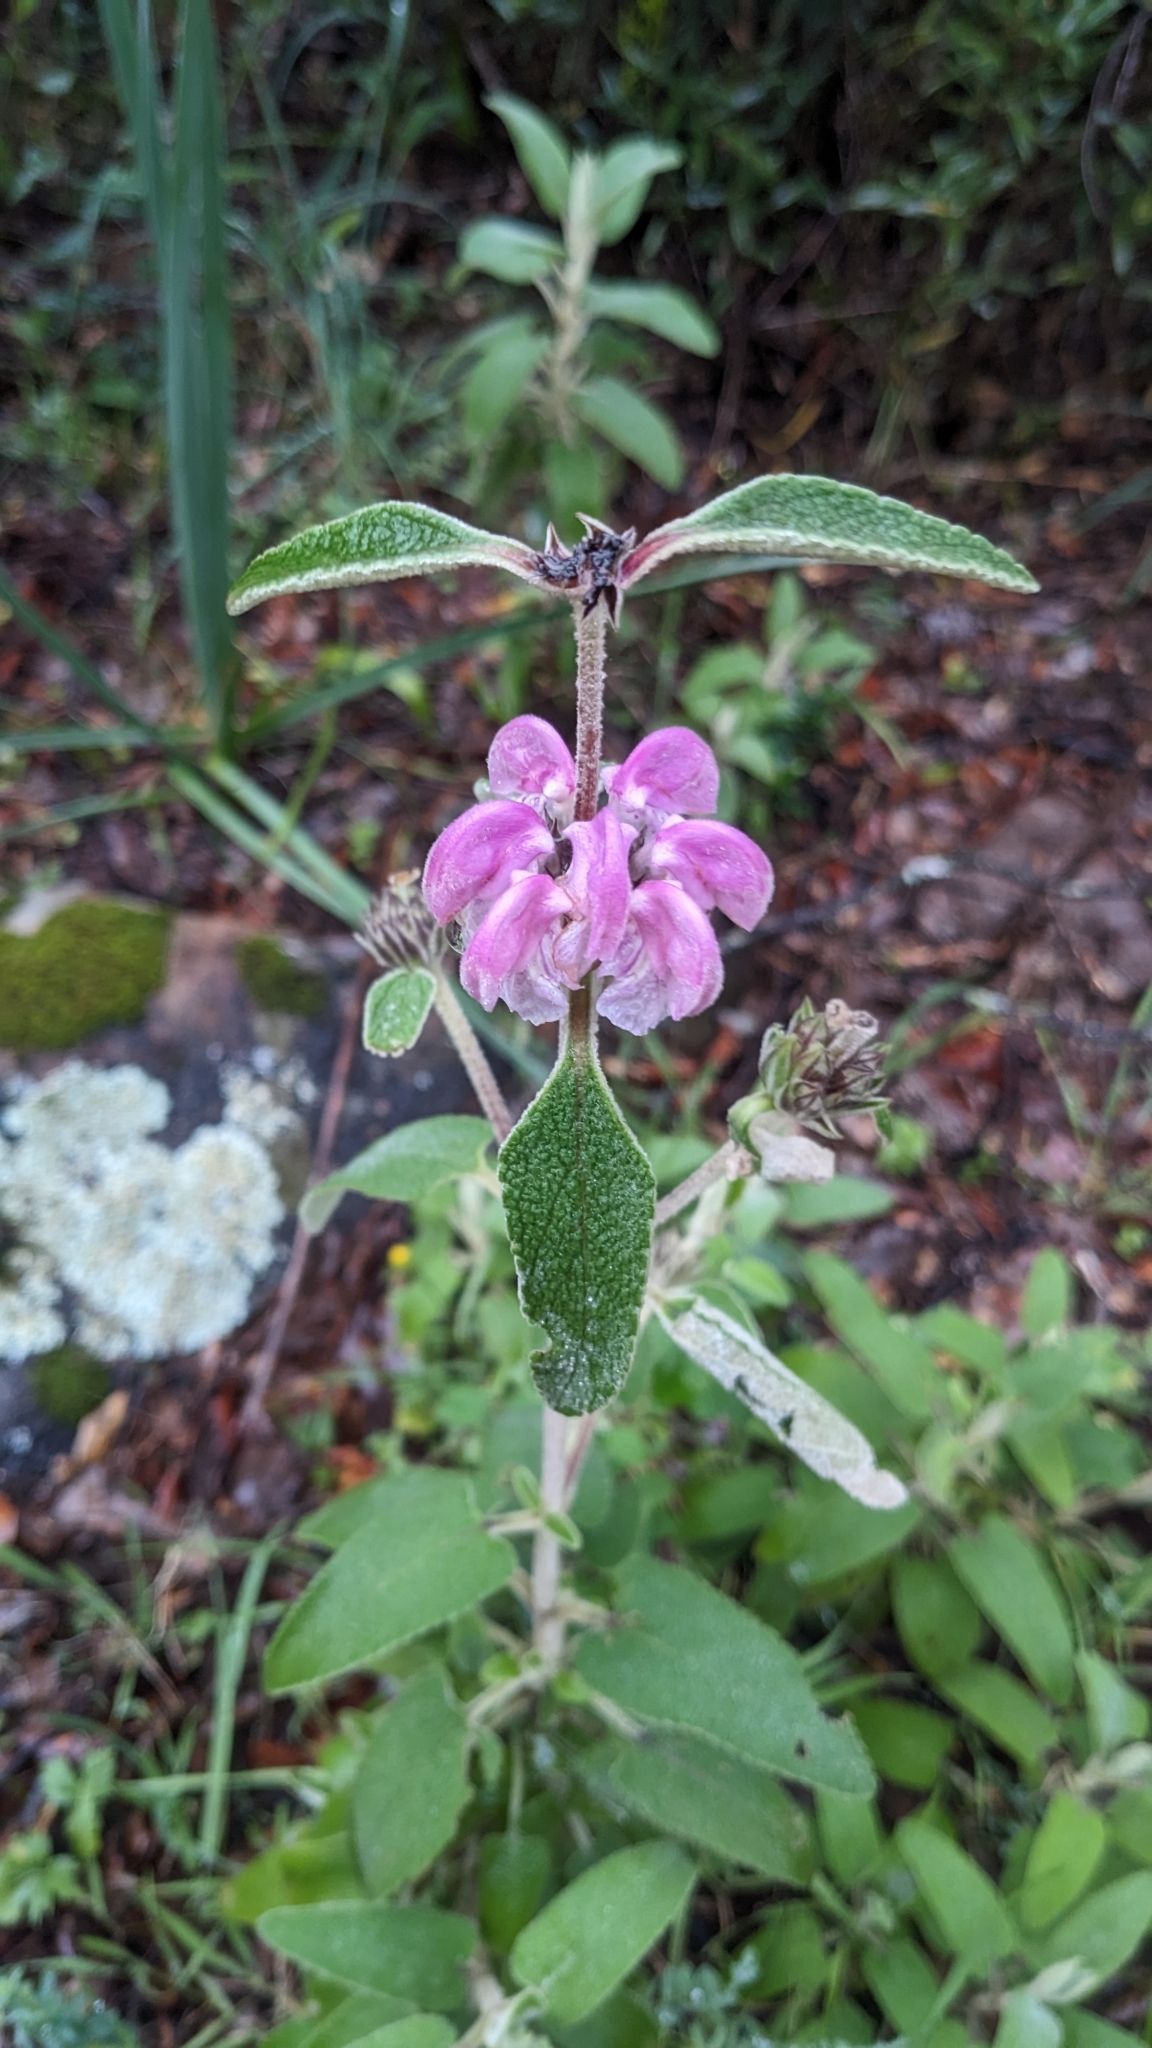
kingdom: Plantae
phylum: Tracheophyta
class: Magnoliopsida
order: Lamiales
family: Lamiaceae
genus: Phlomis
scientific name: Phlomis purpurea
